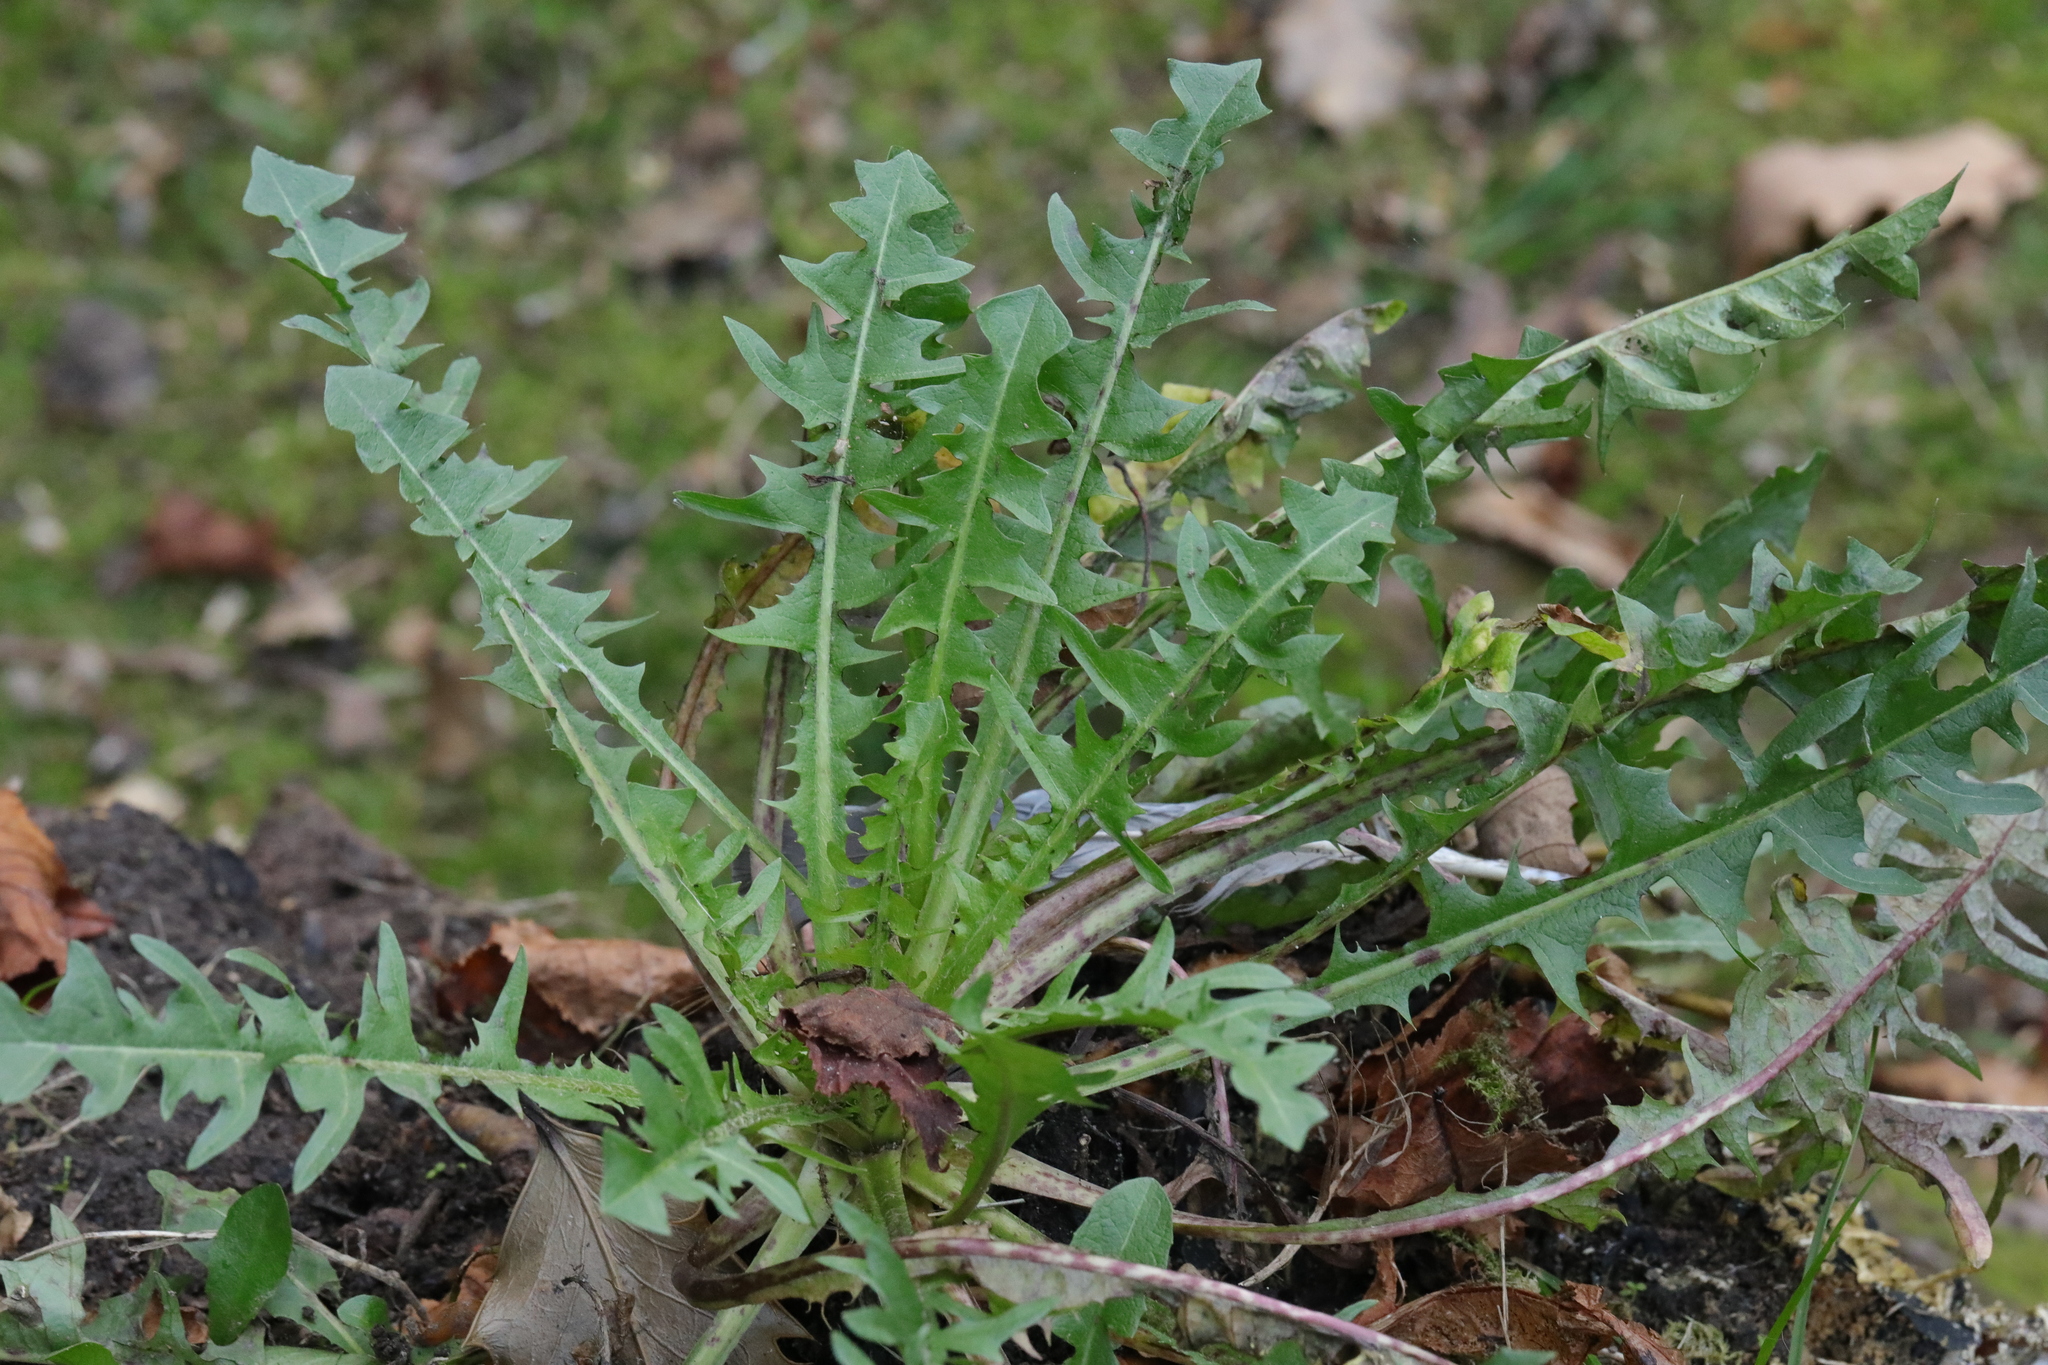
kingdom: Plantae
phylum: Tracheophyta
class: Magnoliopsida
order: Asterales
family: Asteraceae
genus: Taraxacum
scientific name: Taraxacum officinale
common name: Common dandelion
